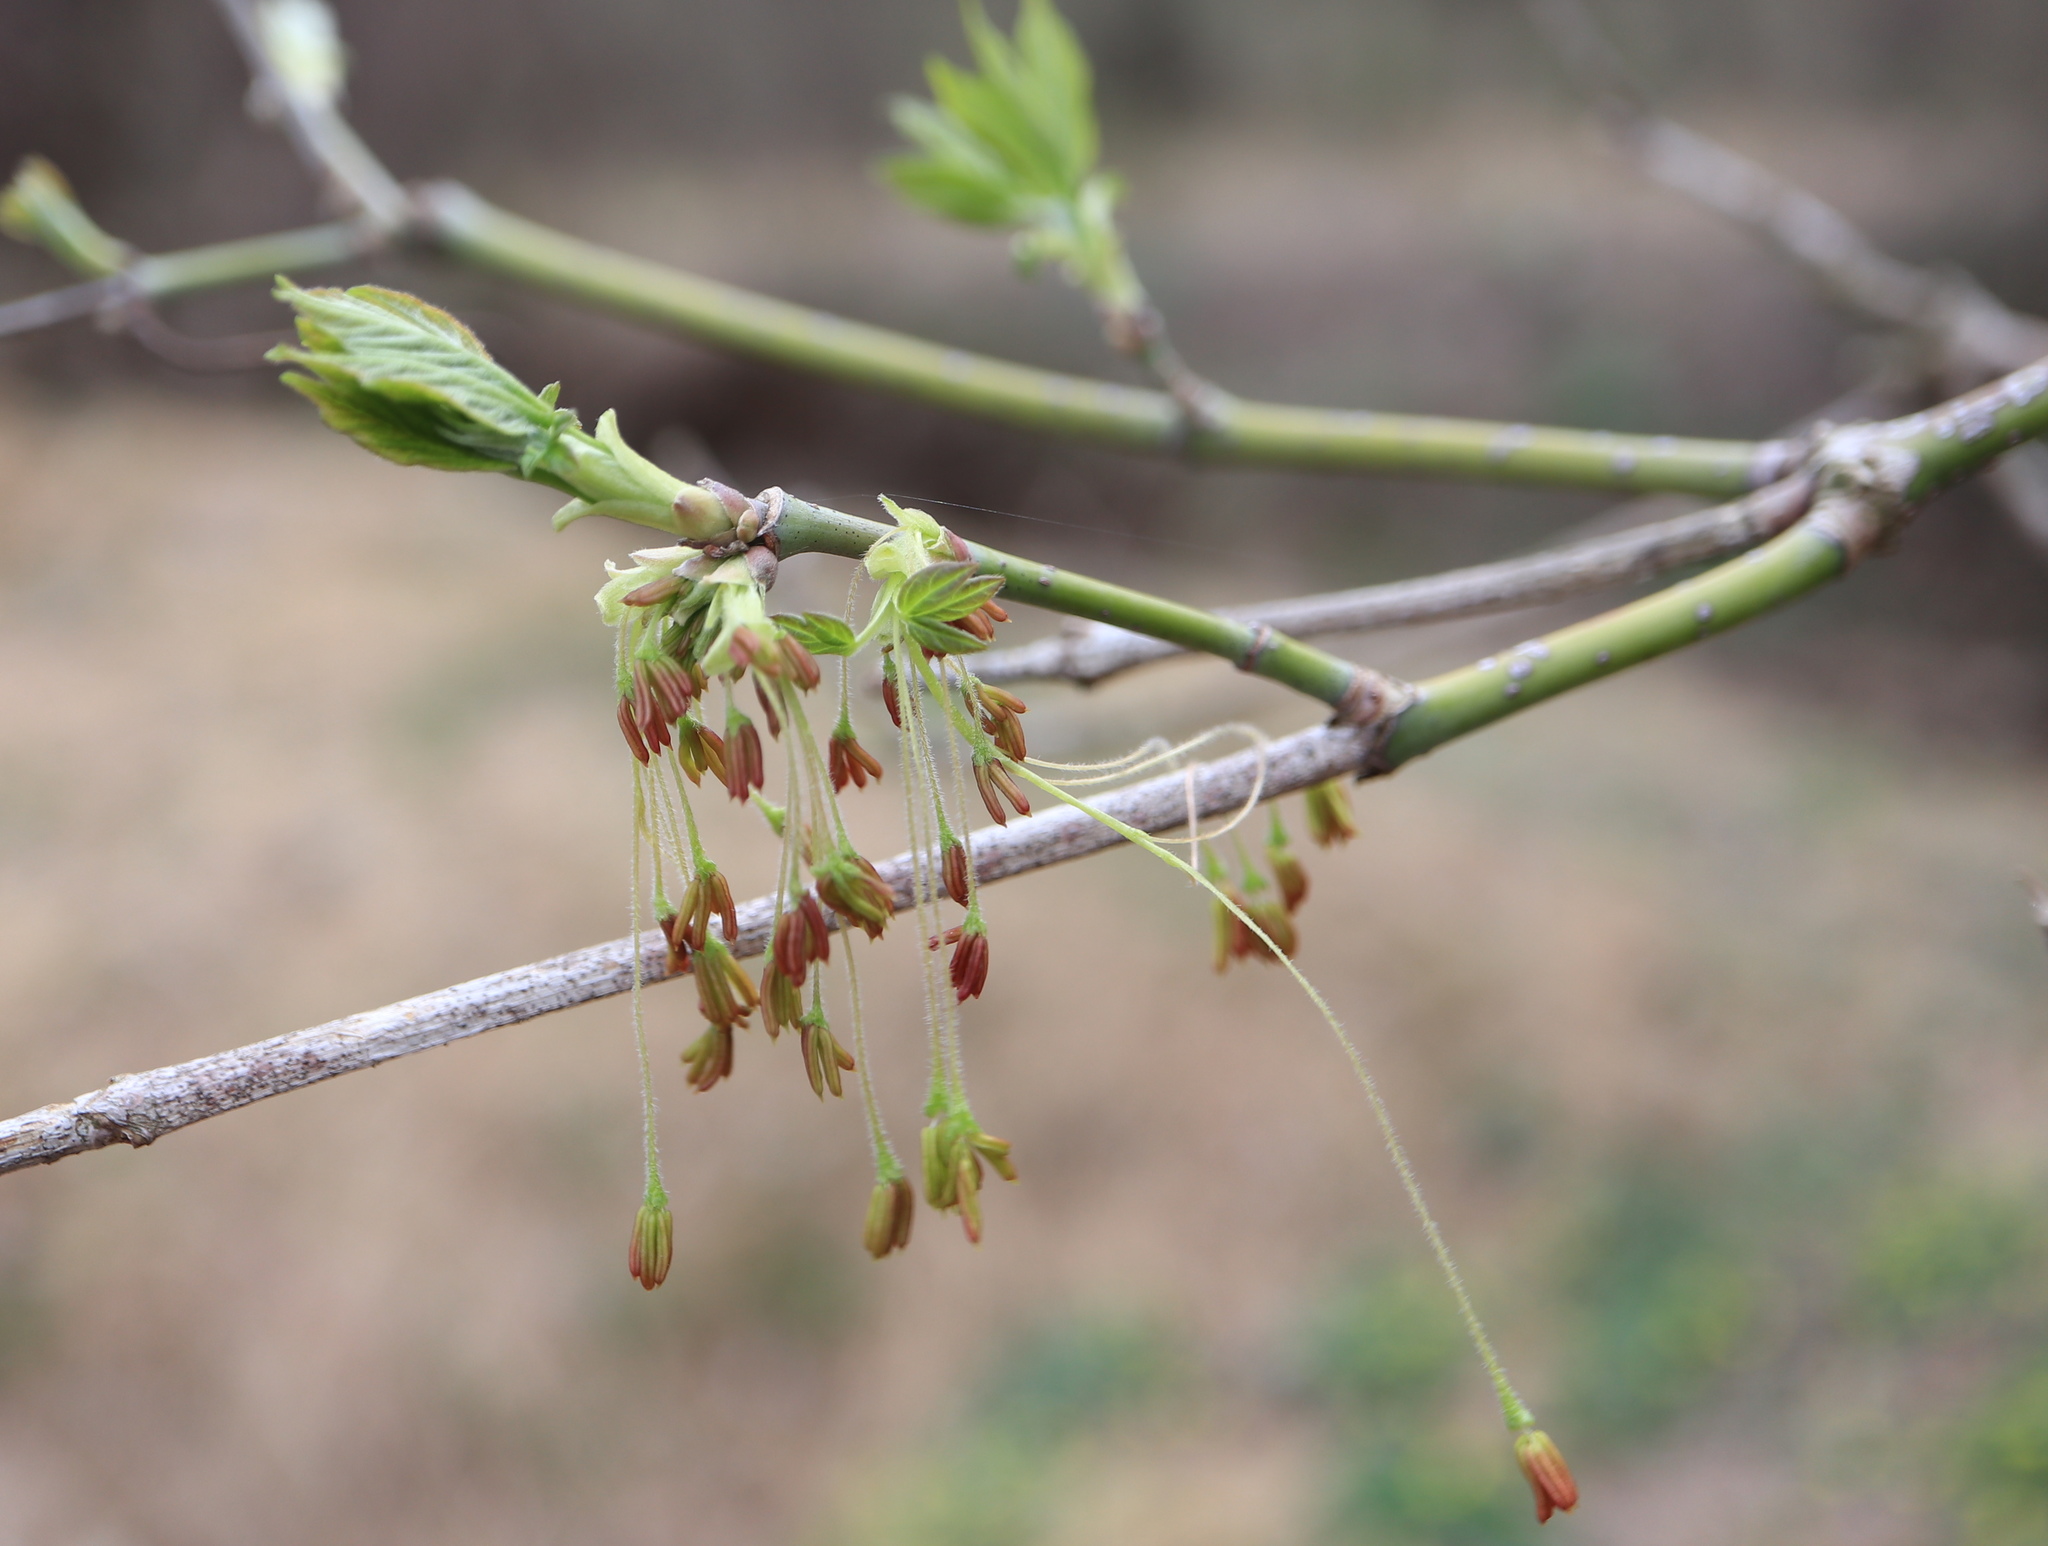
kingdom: Plantae
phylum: Tracheophyta
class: Magnoliopsida
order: Sapindales
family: Sapindaceae
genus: Acer
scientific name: Acer negundo
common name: Ashleaf maple
